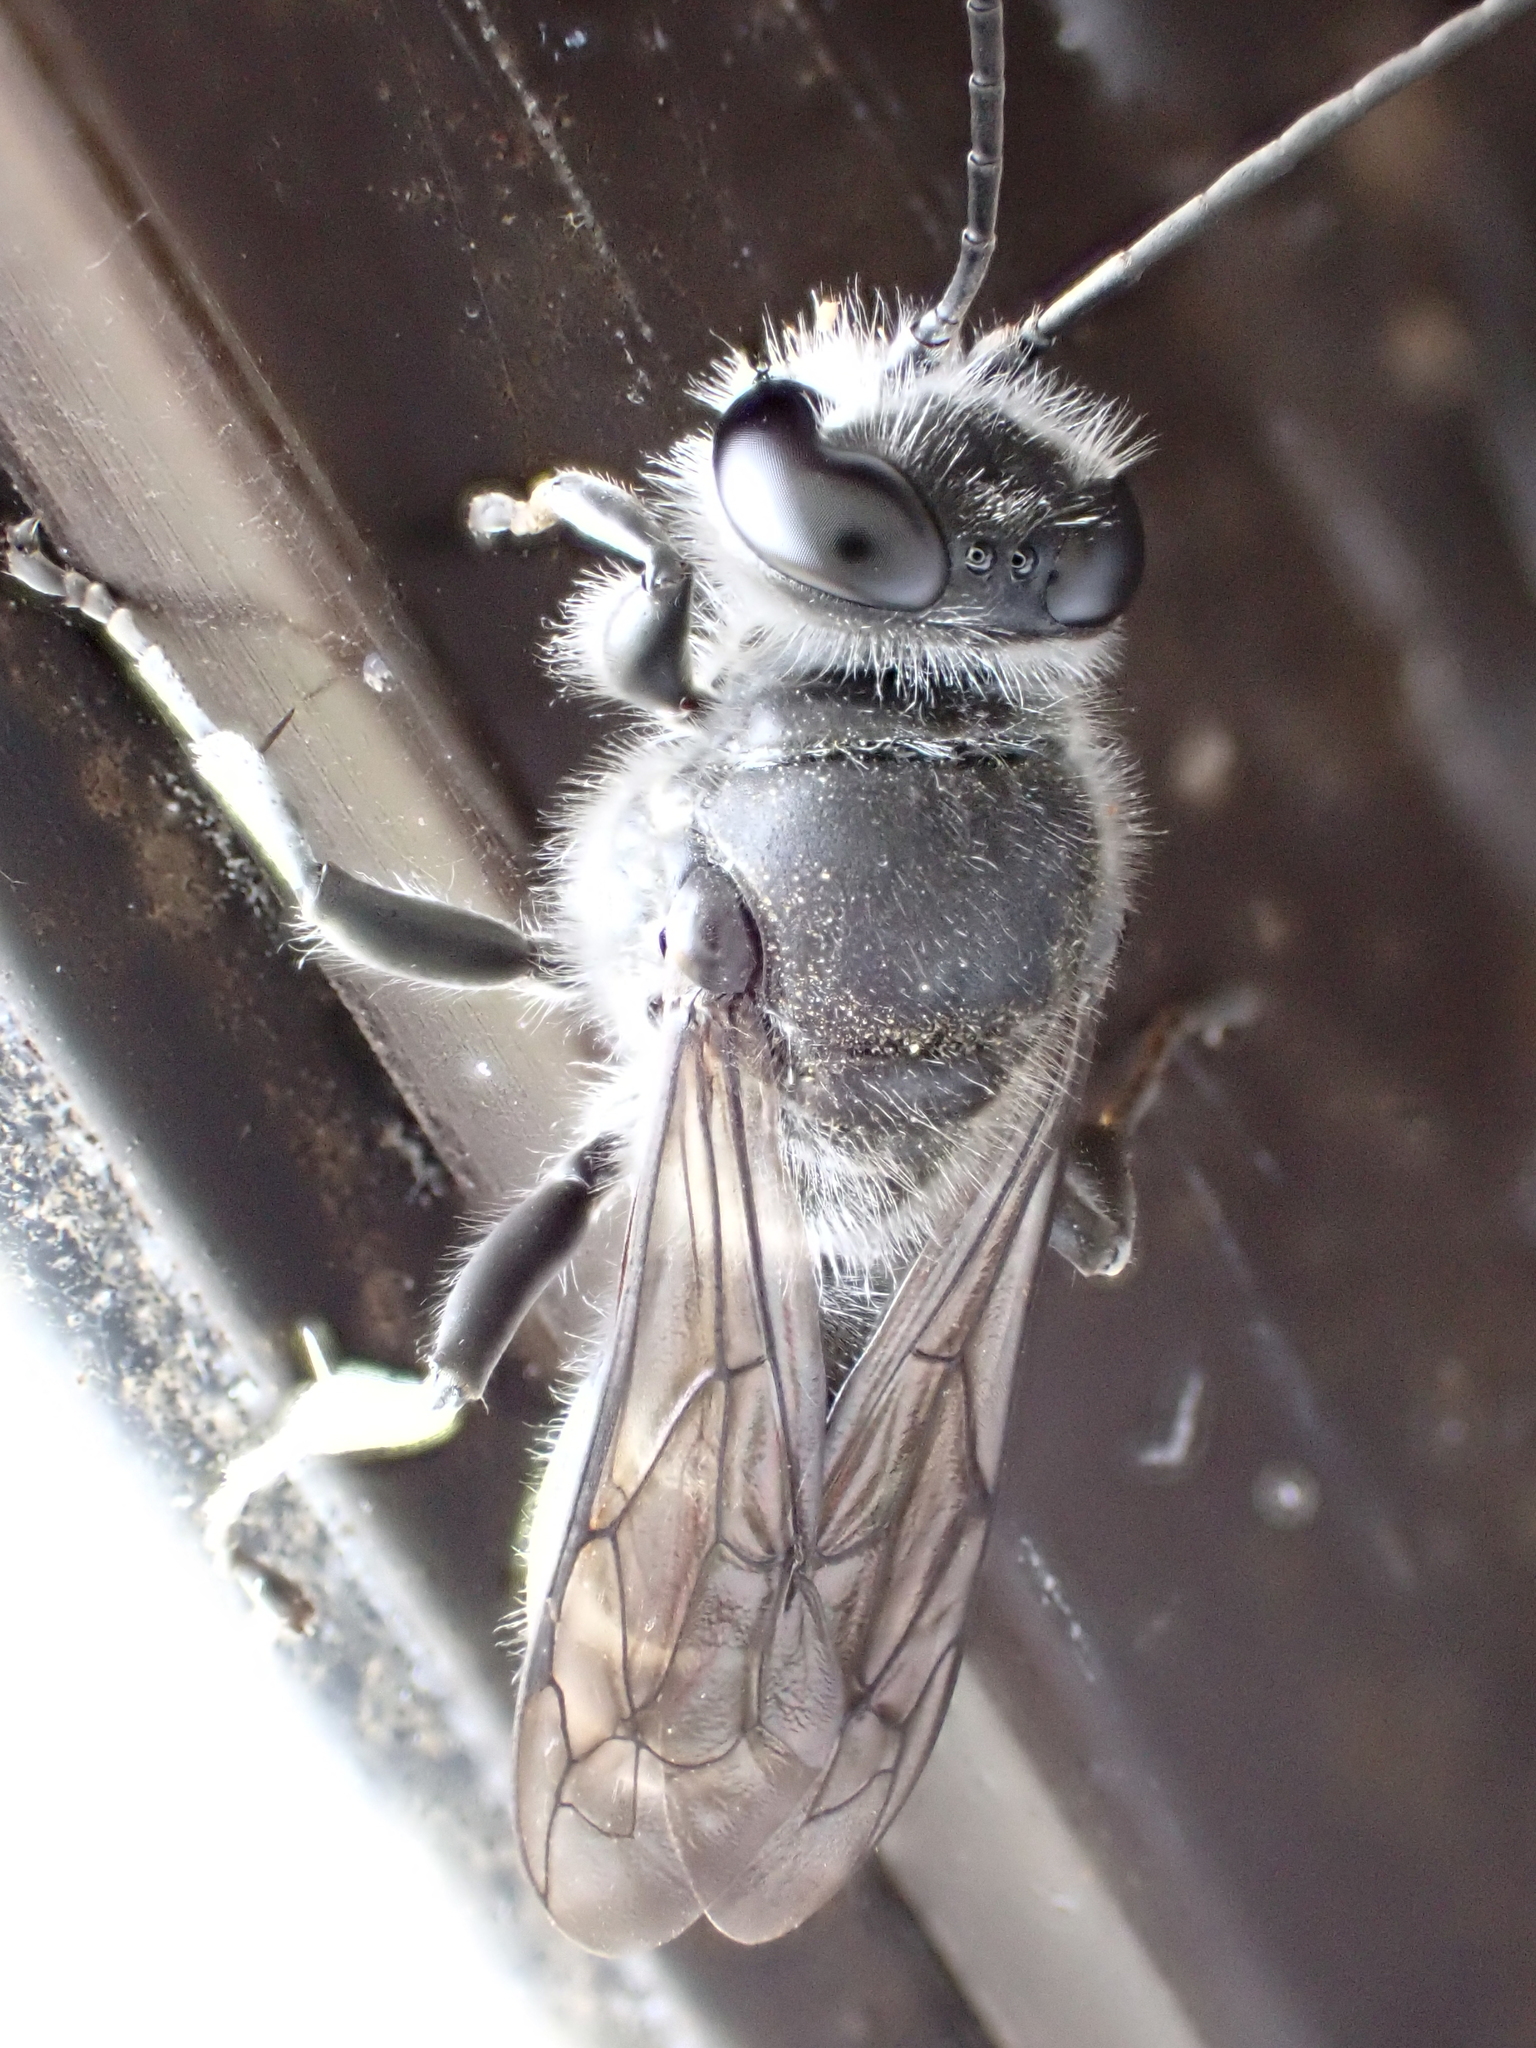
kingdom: Animalia
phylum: Arthropoda
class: Insecta
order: Hymenoptera
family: Crabronidae
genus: Pison
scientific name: Pison spinolae
